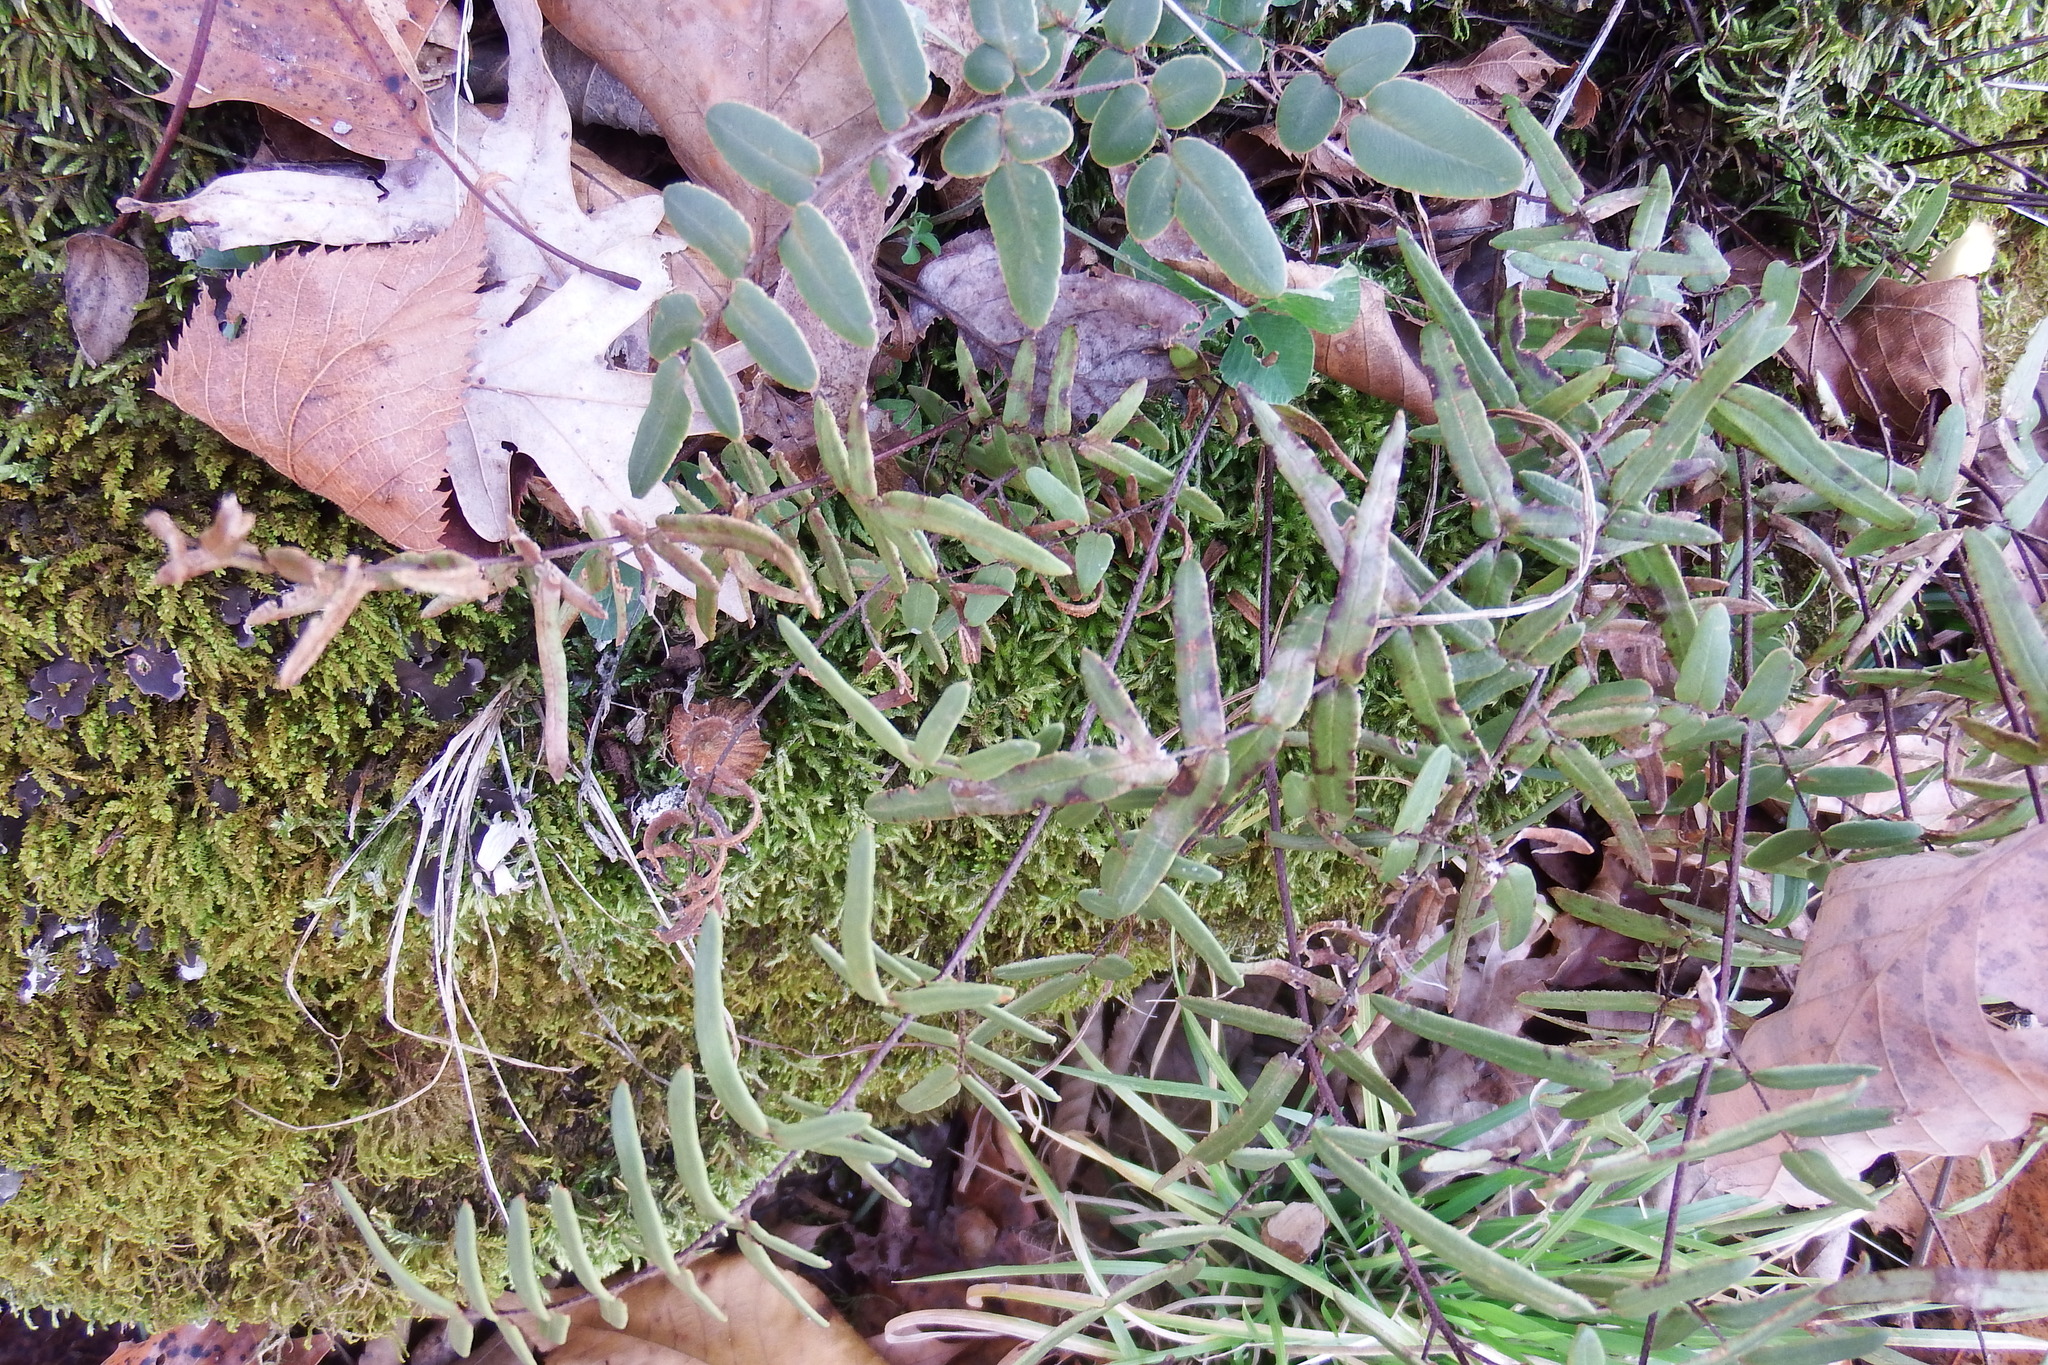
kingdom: Plantae
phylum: Tracheophyta
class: Polypodiopsida
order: Polypodiales
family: Pteridaceae
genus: Pellaea
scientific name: Pellaea atropurpurea
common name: Hairy cliffbrake
